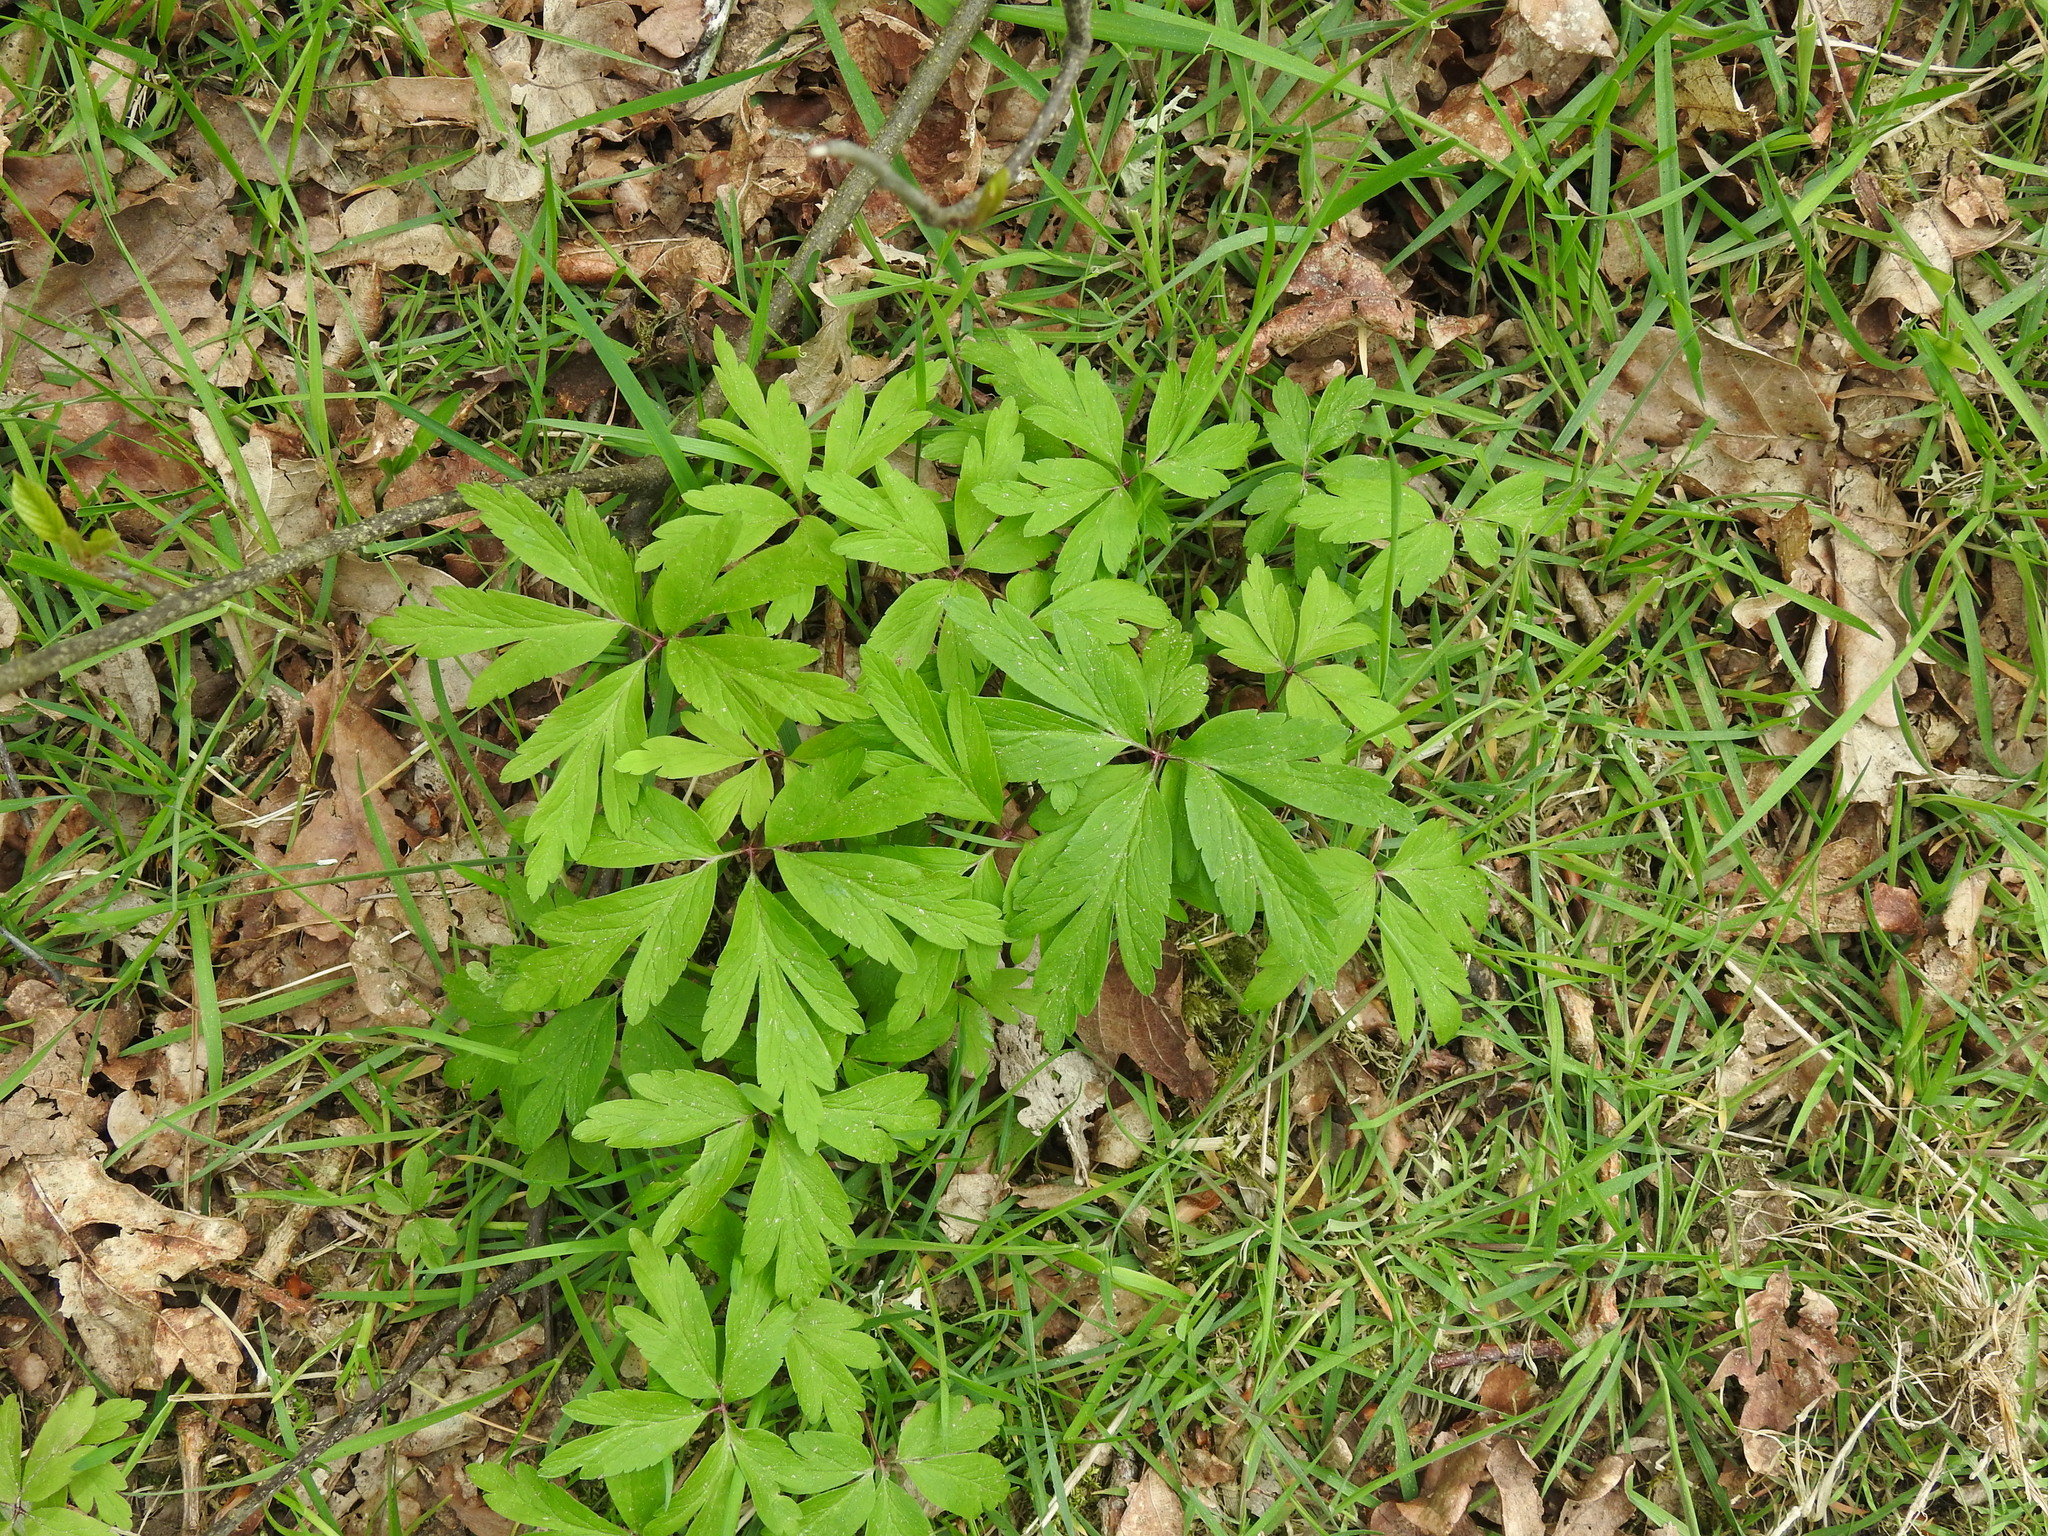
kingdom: Plantae
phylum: Tracheophyta
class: Magnoliopsida
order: Ranunculales
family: Ranunculaceae
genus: Anemone
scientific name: Anemone nemorosa
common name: Wood anemone
